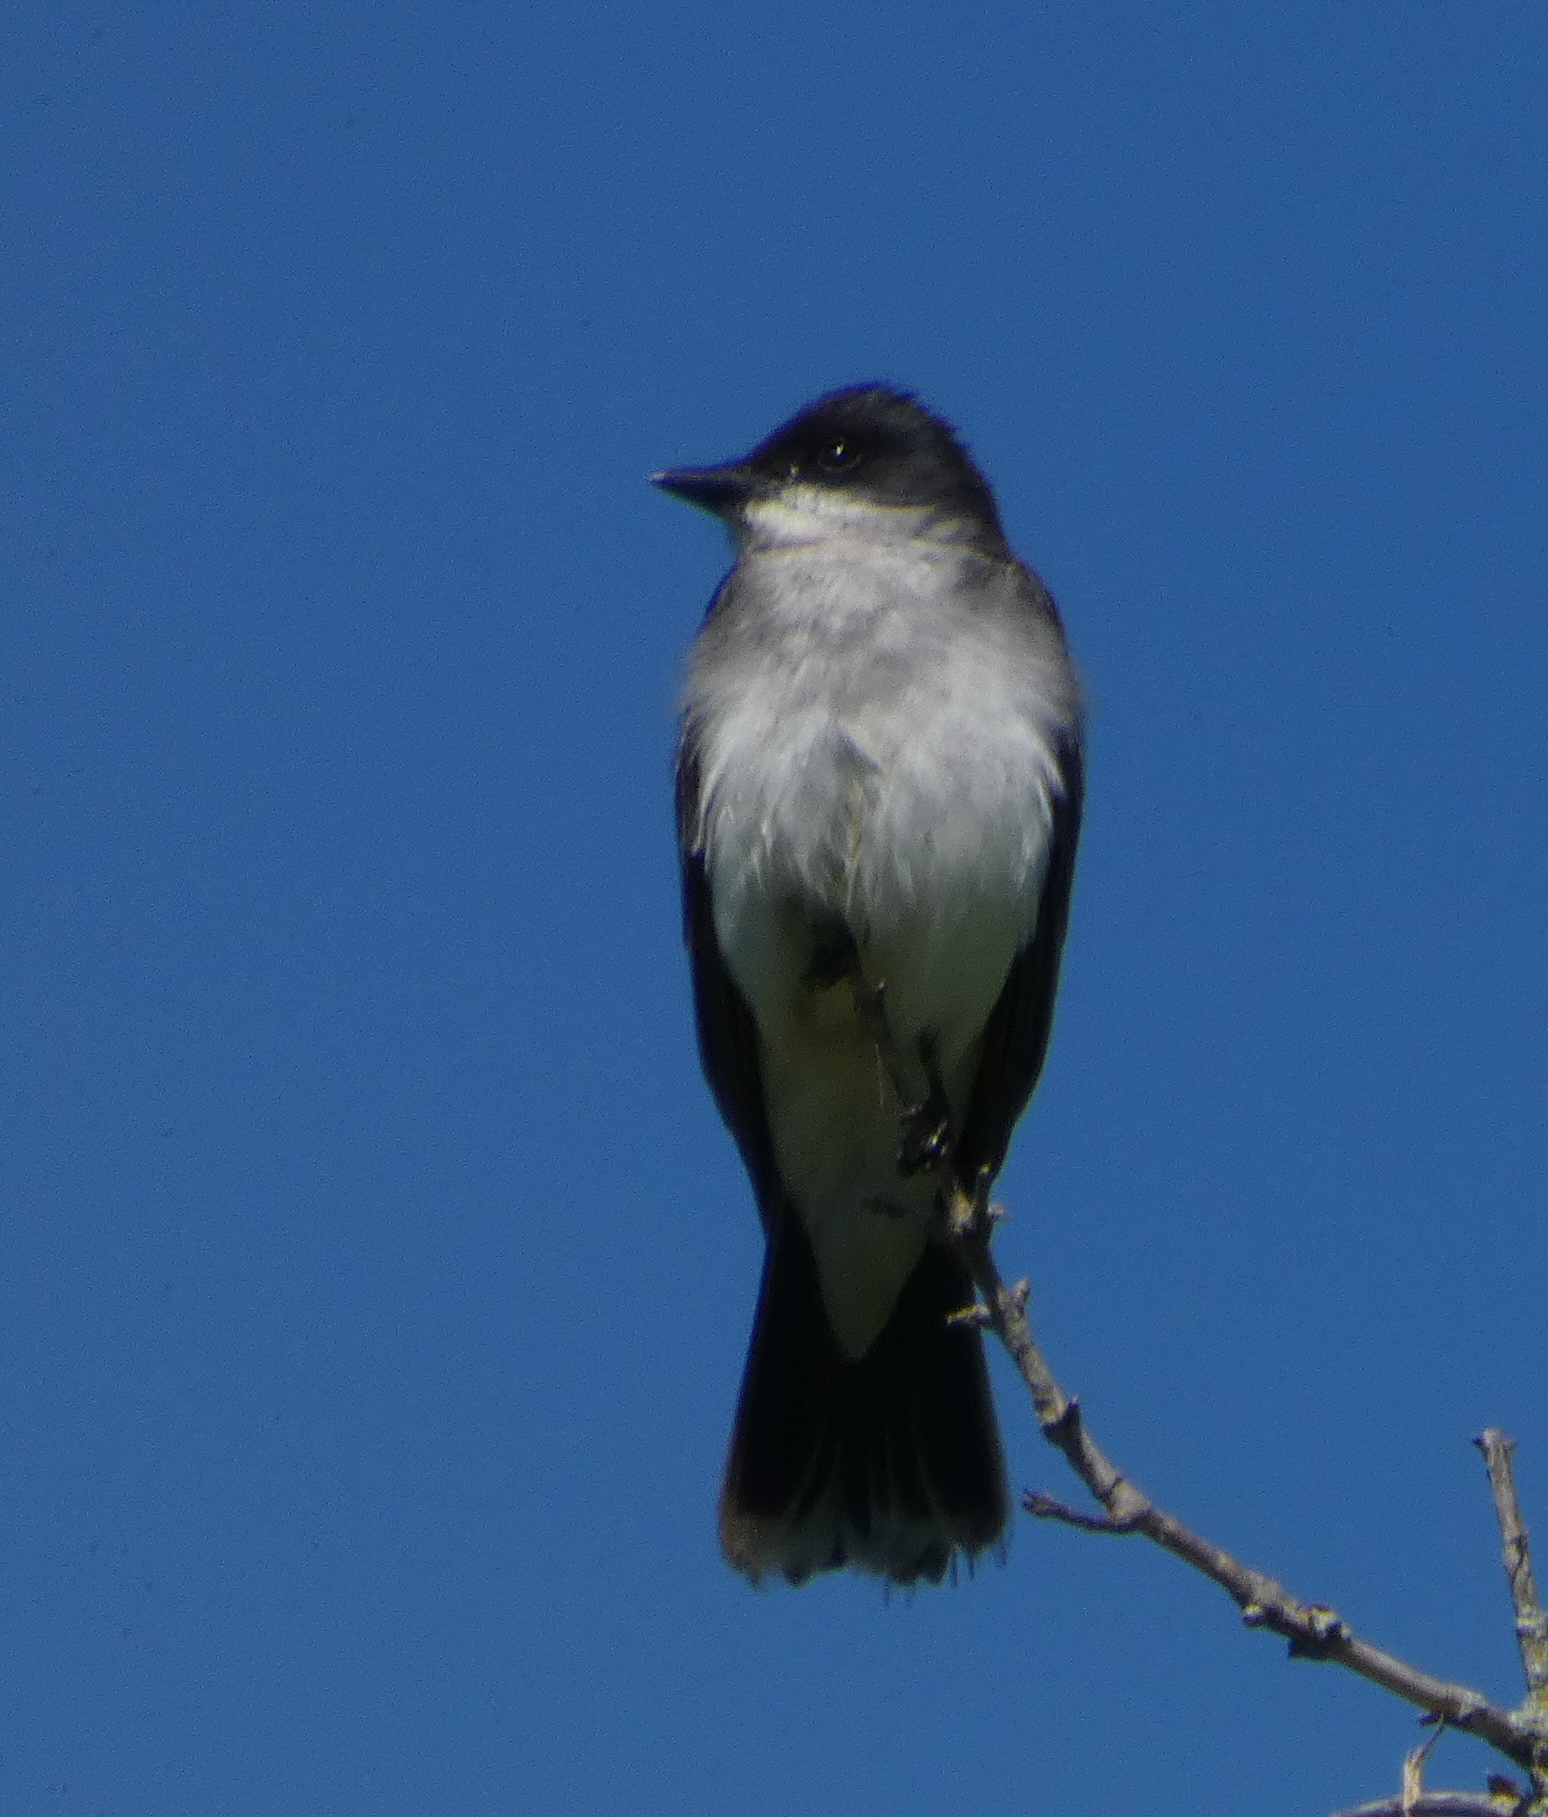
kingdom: Animalia
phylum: Chordata
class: Aves
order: Passeriformes
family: Tyrannidae
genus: Tyrannus
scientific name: Tyrannus tyrannus
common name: Eastern kingbird
